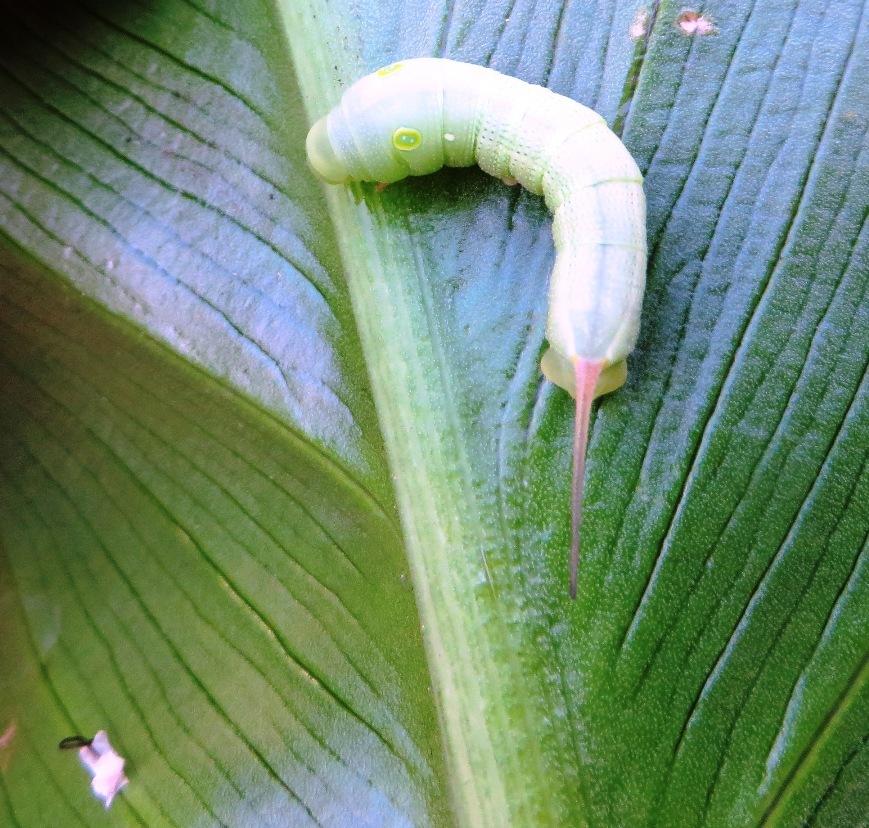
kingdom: Animalia
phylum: Arthropoda
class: Insecta
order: Lepidoptera
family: Sphingidae
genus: Hippotion
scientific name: Hippotion celerio
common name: Silver-striped hawk-moth
